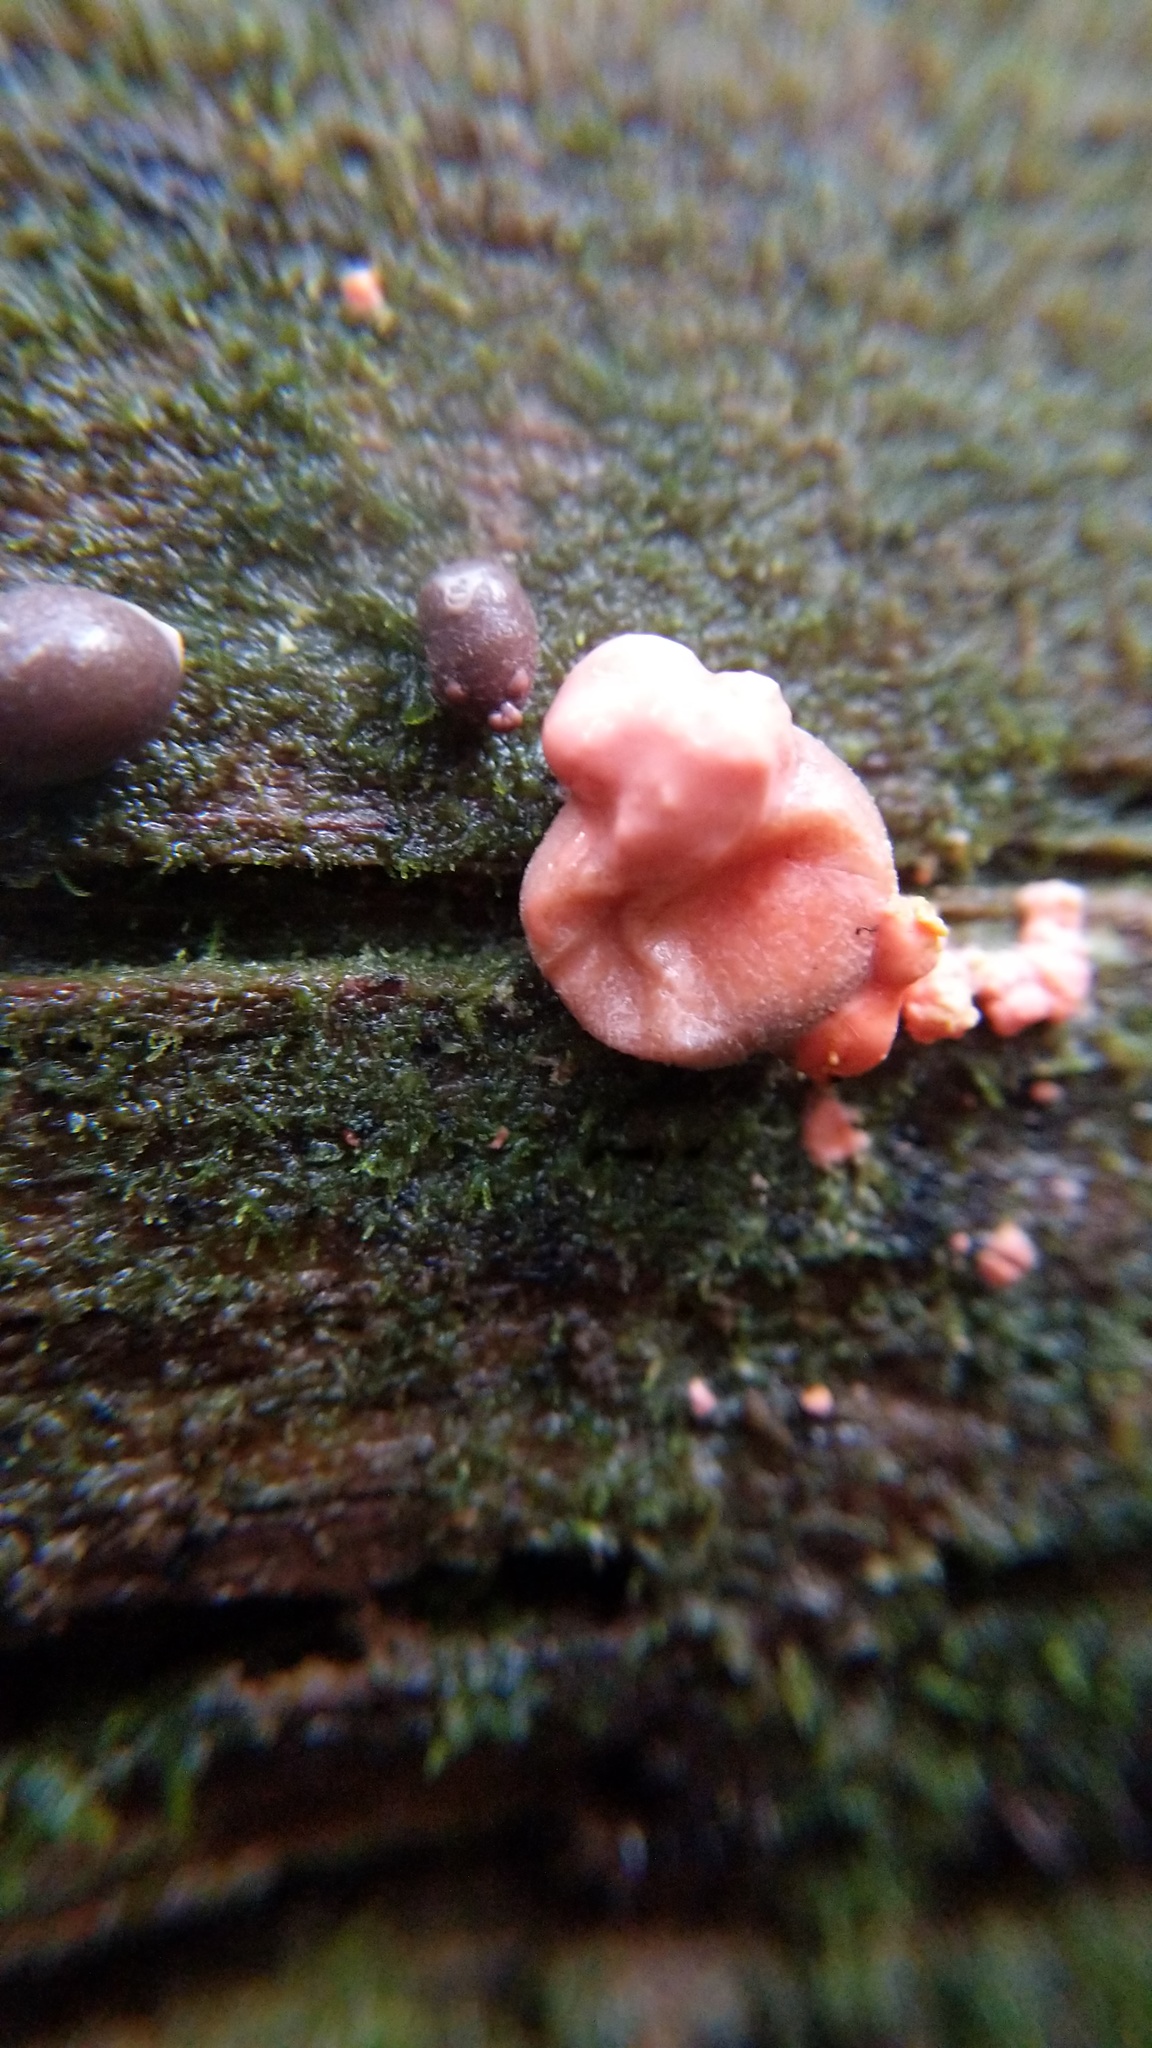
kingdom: Protozoa
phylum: Mycetozoa
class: Myxomycetes
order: Cribrariales
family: Tubiferaceae
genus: Lycogala
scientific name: Lycogala epidendrum
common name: Wolf's milk
